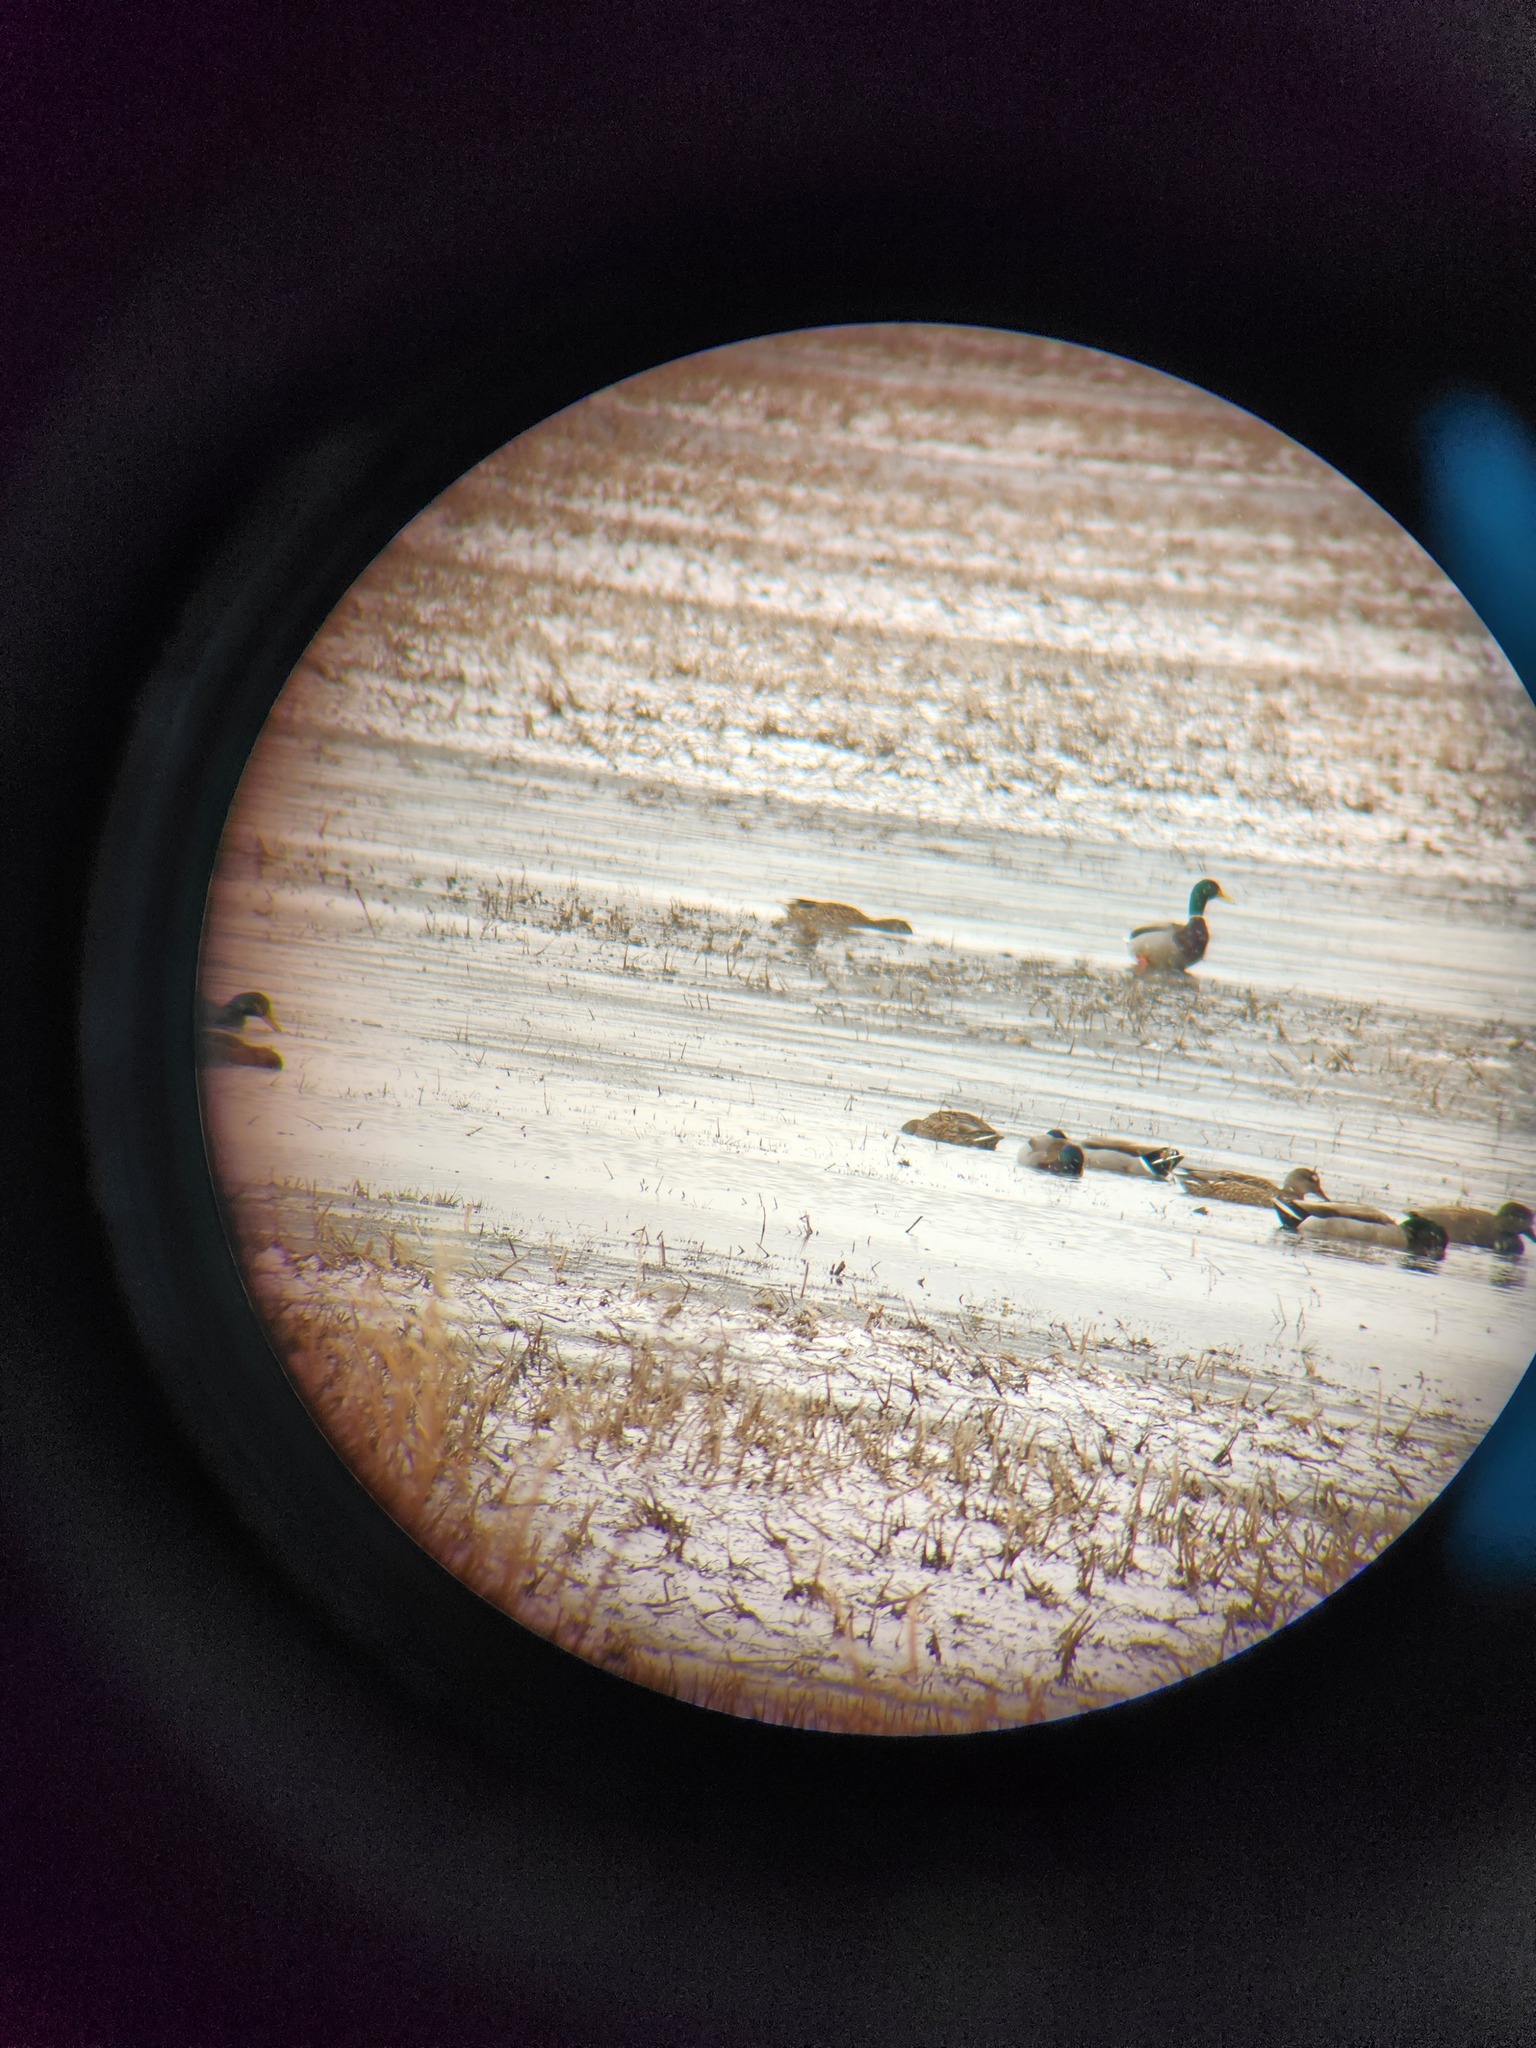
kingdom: Animalia
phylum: Chordata
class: Aves
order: Anseriformes
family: Anatidae
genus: Anas
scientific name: Anas platyrhynchos
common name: Mallard
